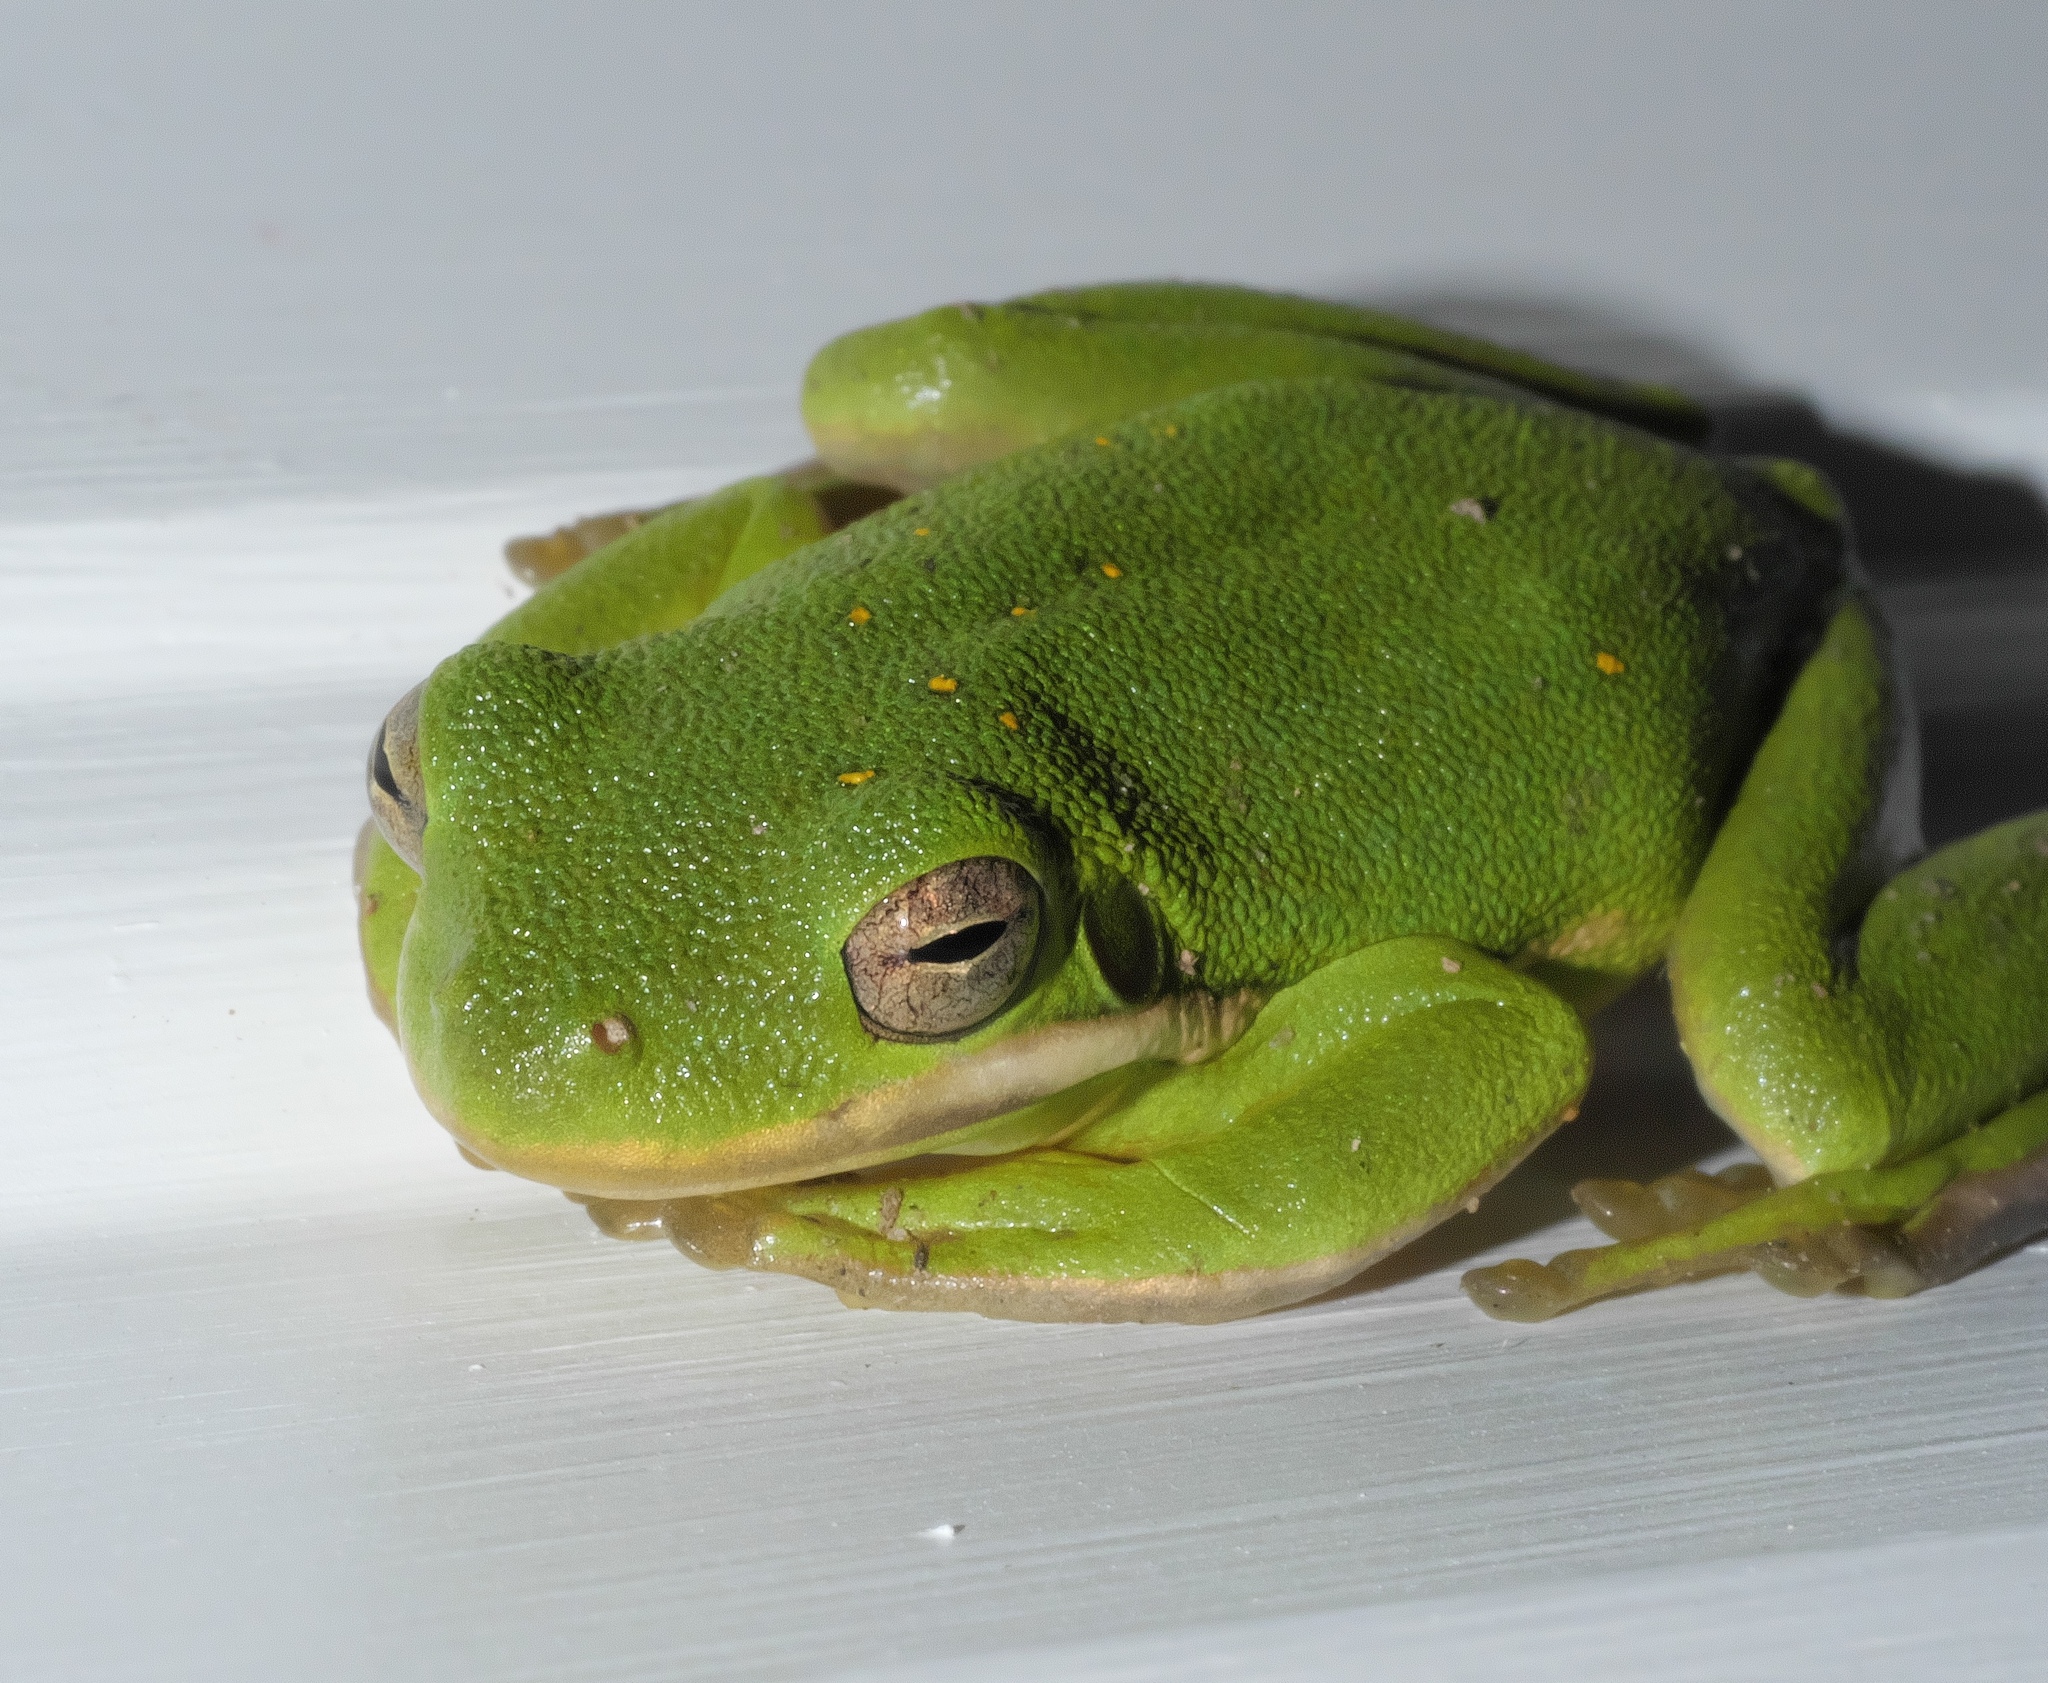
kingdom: Animalia
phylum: Chordata
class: Amphibia
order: Anura
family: Hylidae
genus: Dryophytes
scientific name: Dryophytes cinereus
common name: Green treefrog
